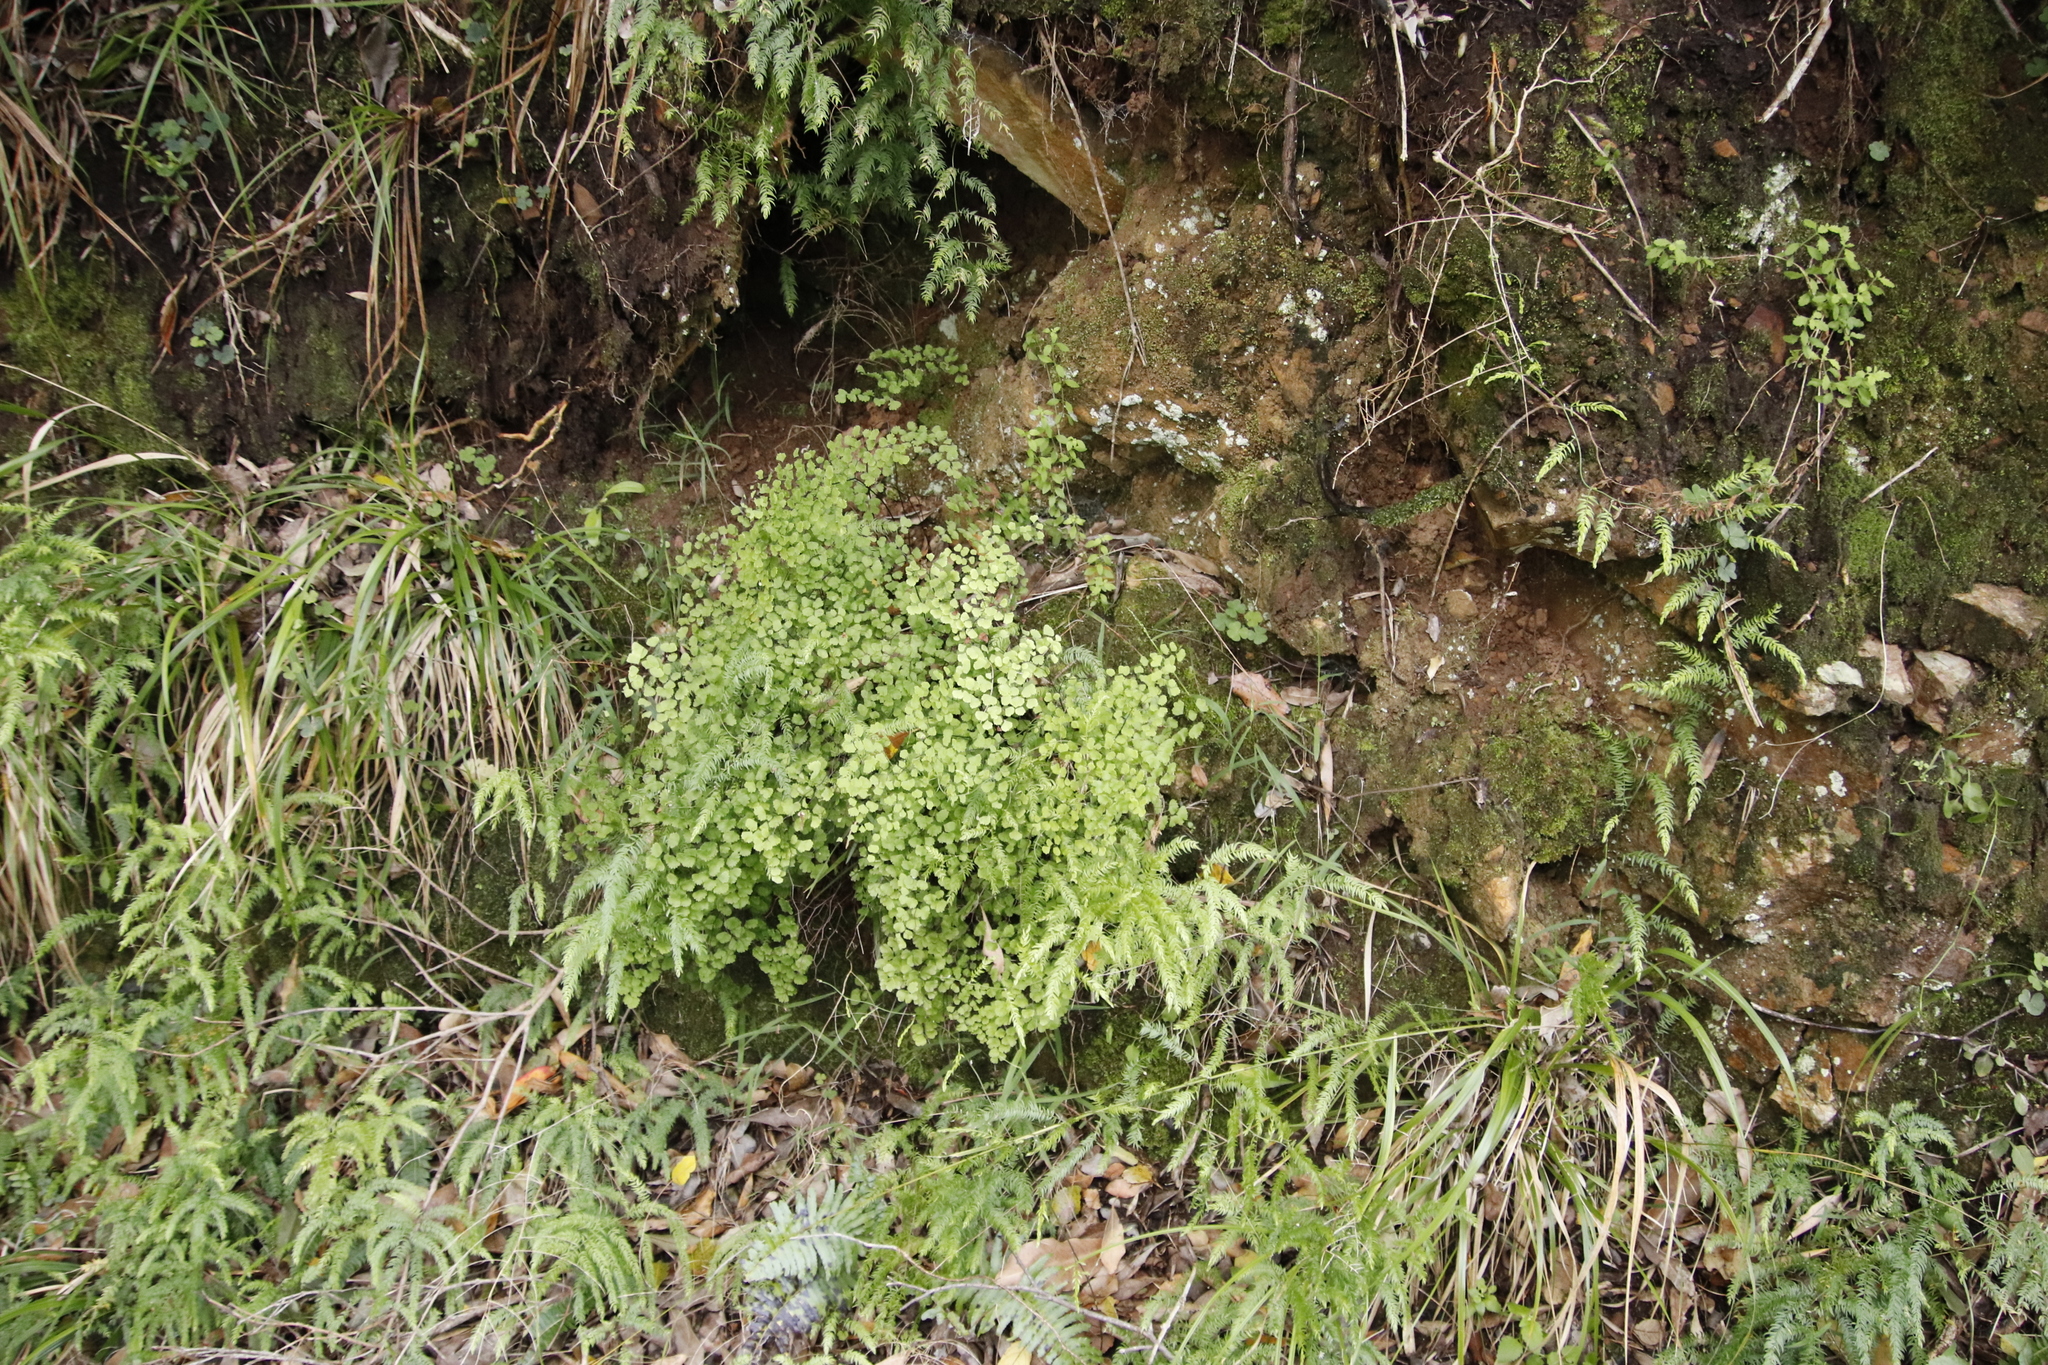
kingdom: Plantae
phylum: Tracheophyta
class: Polypodiopsida
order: Polypodiales
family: Pteridaceae
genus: Adiantum
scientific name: Adiantum poiretii
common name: Mexican maidenhair
